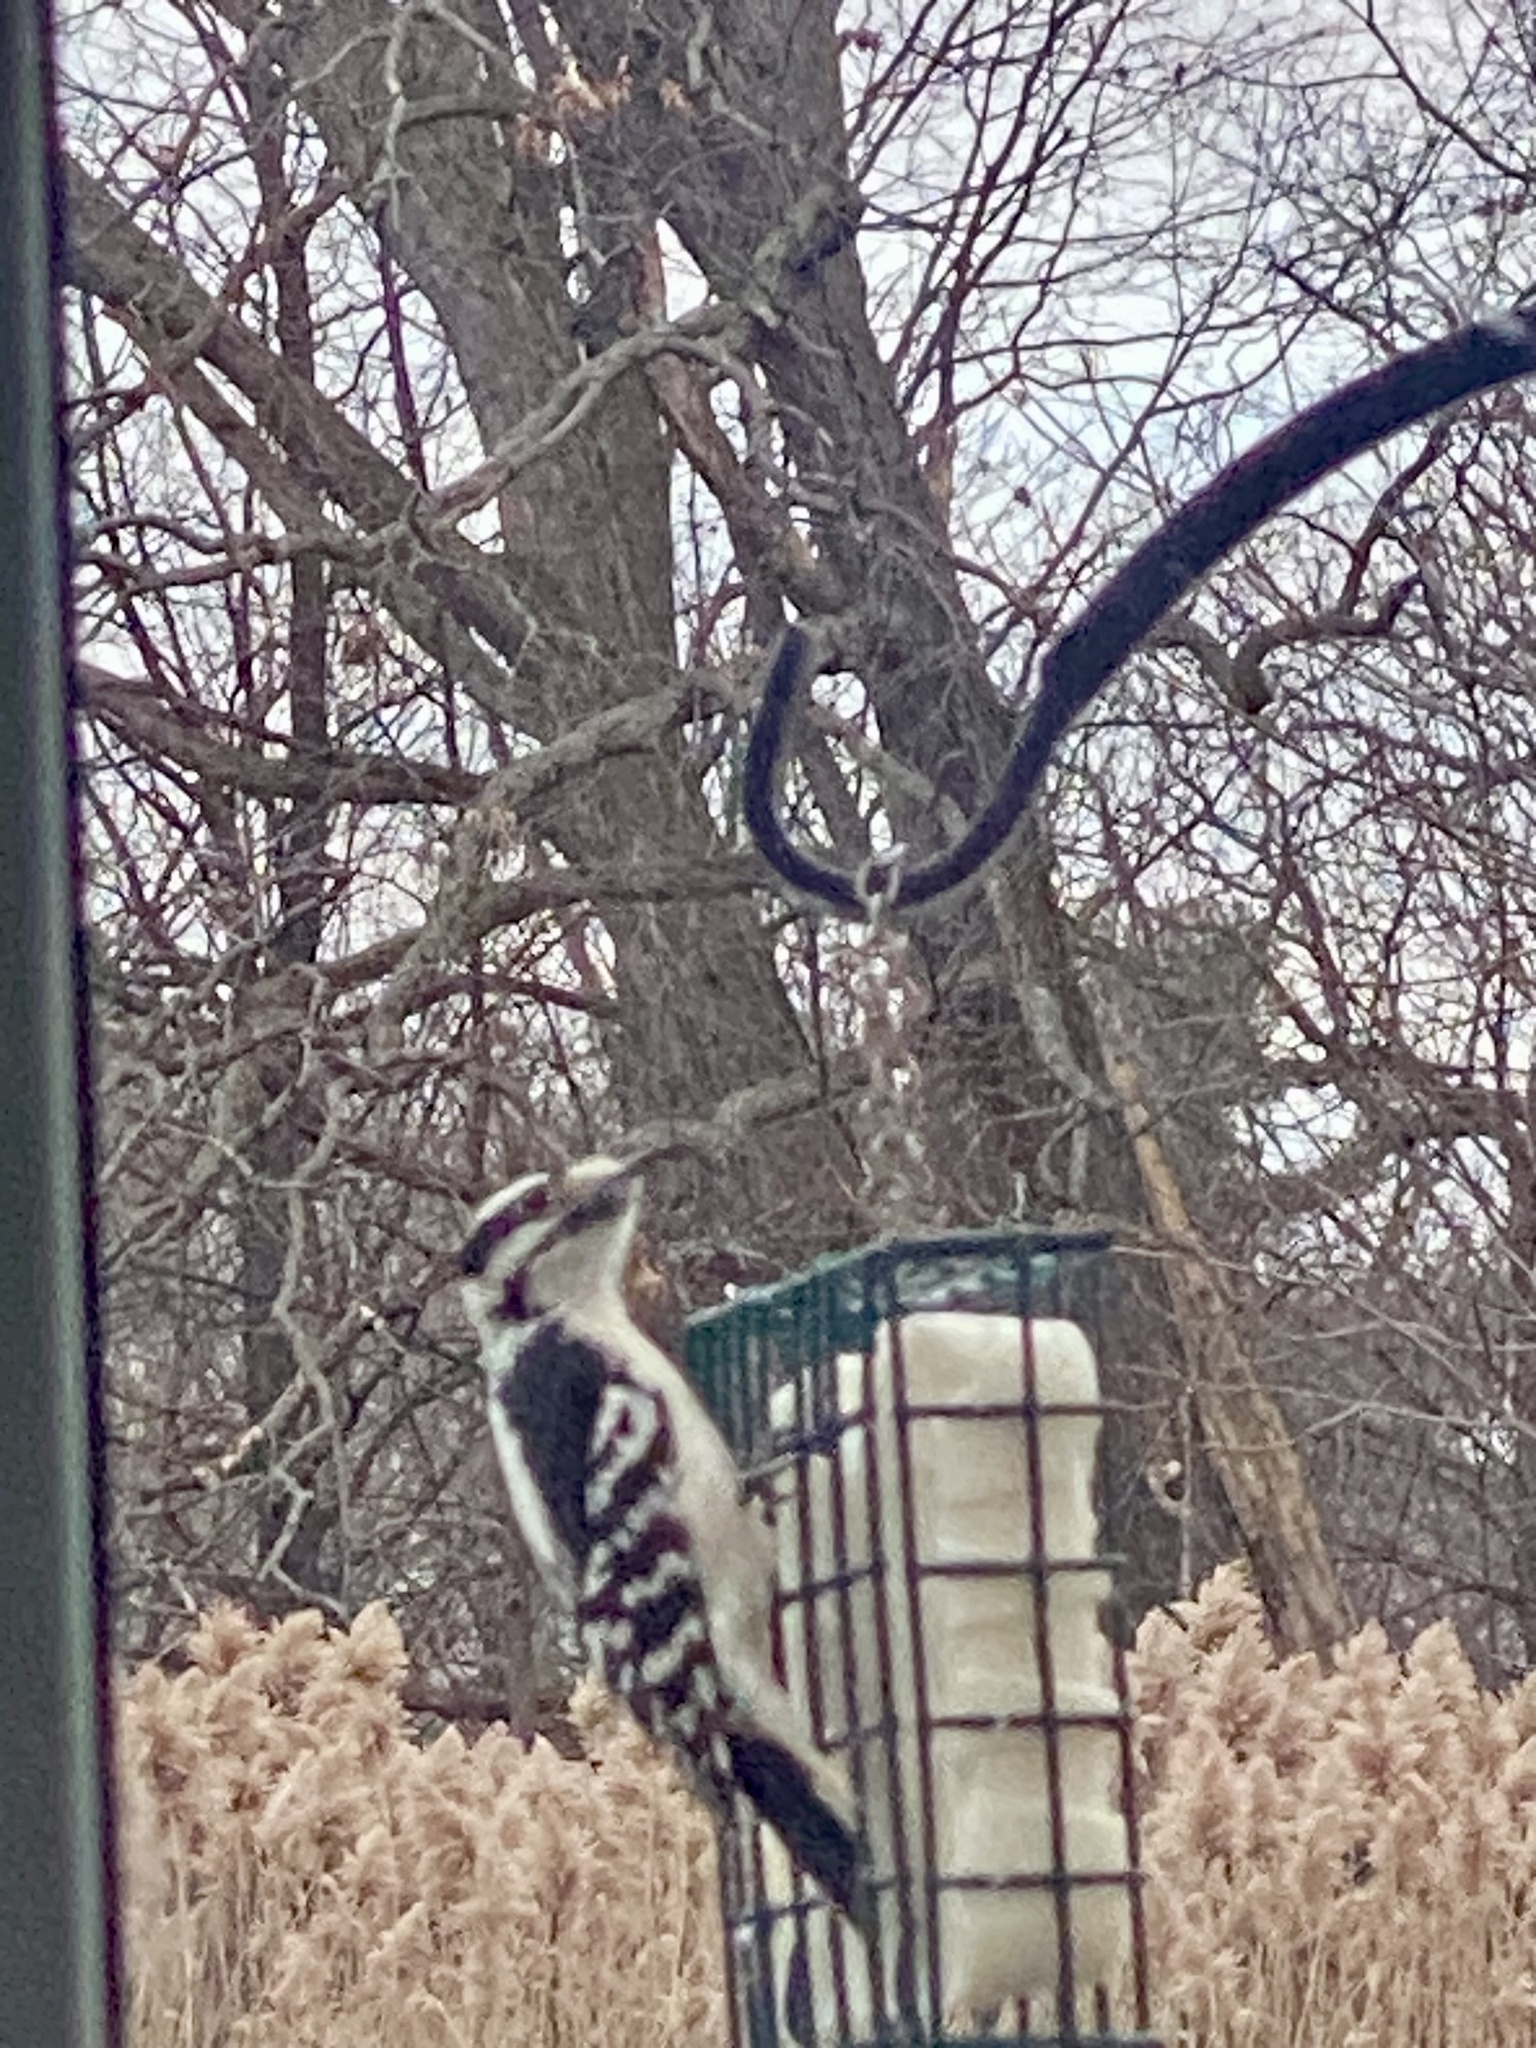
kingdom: Animalia
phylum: Chordata
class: Aves
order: Piciformes
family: Picidae
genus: Dryobates
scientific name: Dryobates pubescens
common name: Downy woodpecker
